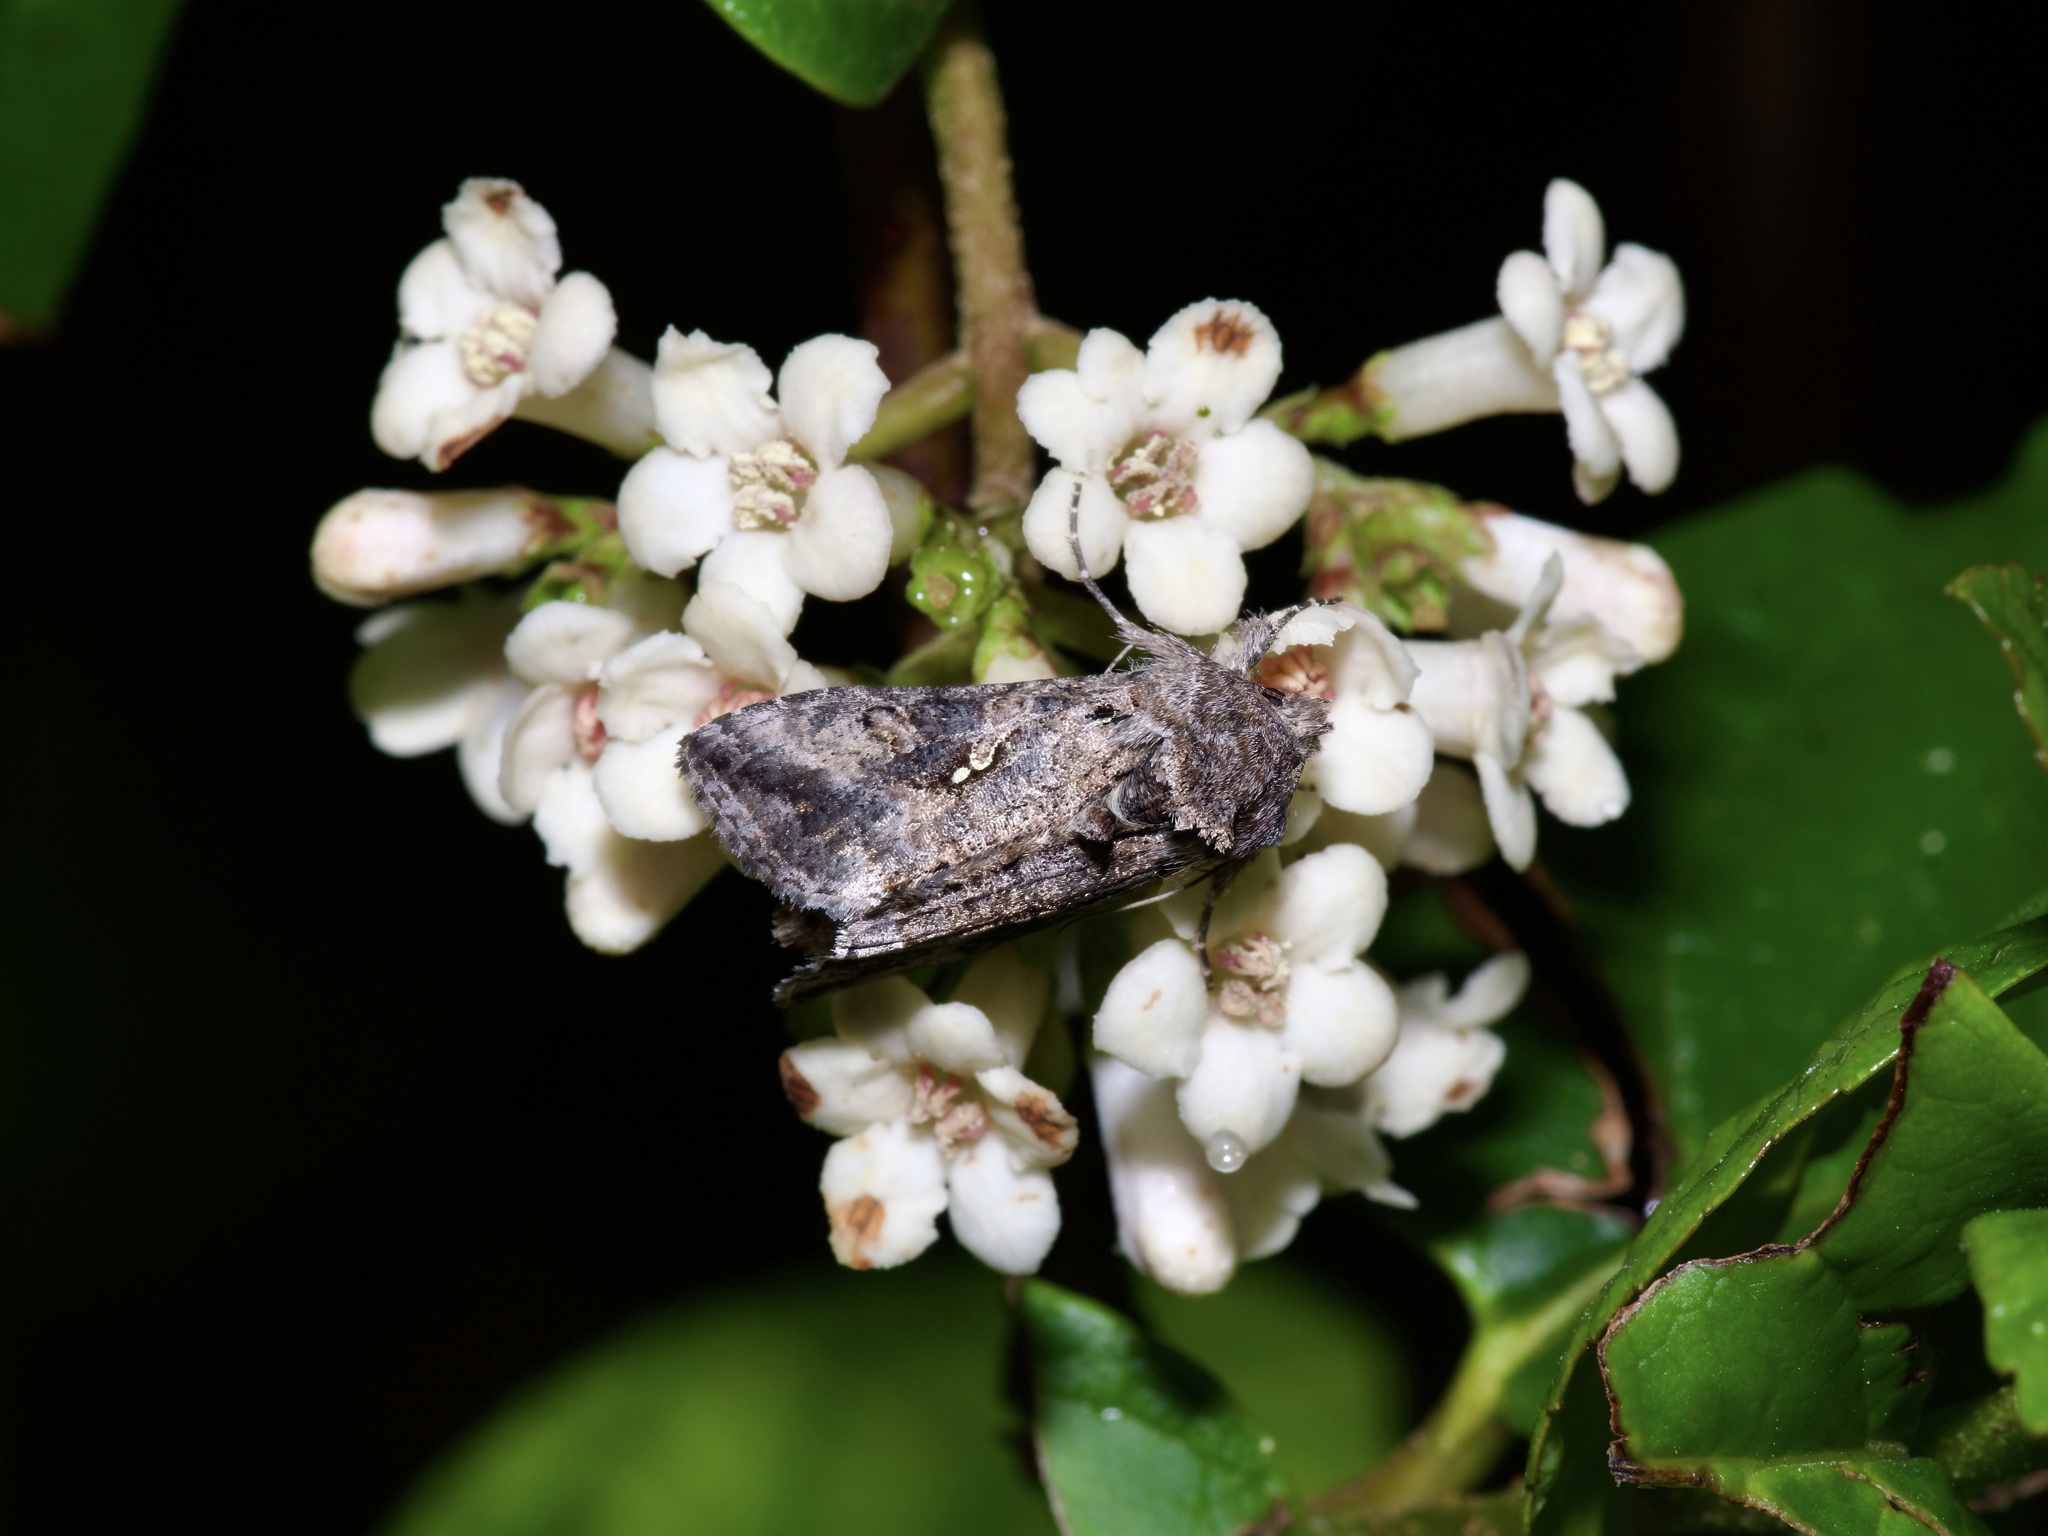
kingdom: Animalia
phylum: Arthropoda
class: Insecta
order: Lepidoptera
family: Noctuidae
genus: Rachiplusia
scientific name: Rachiplusia ou
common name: Gray looper moth
